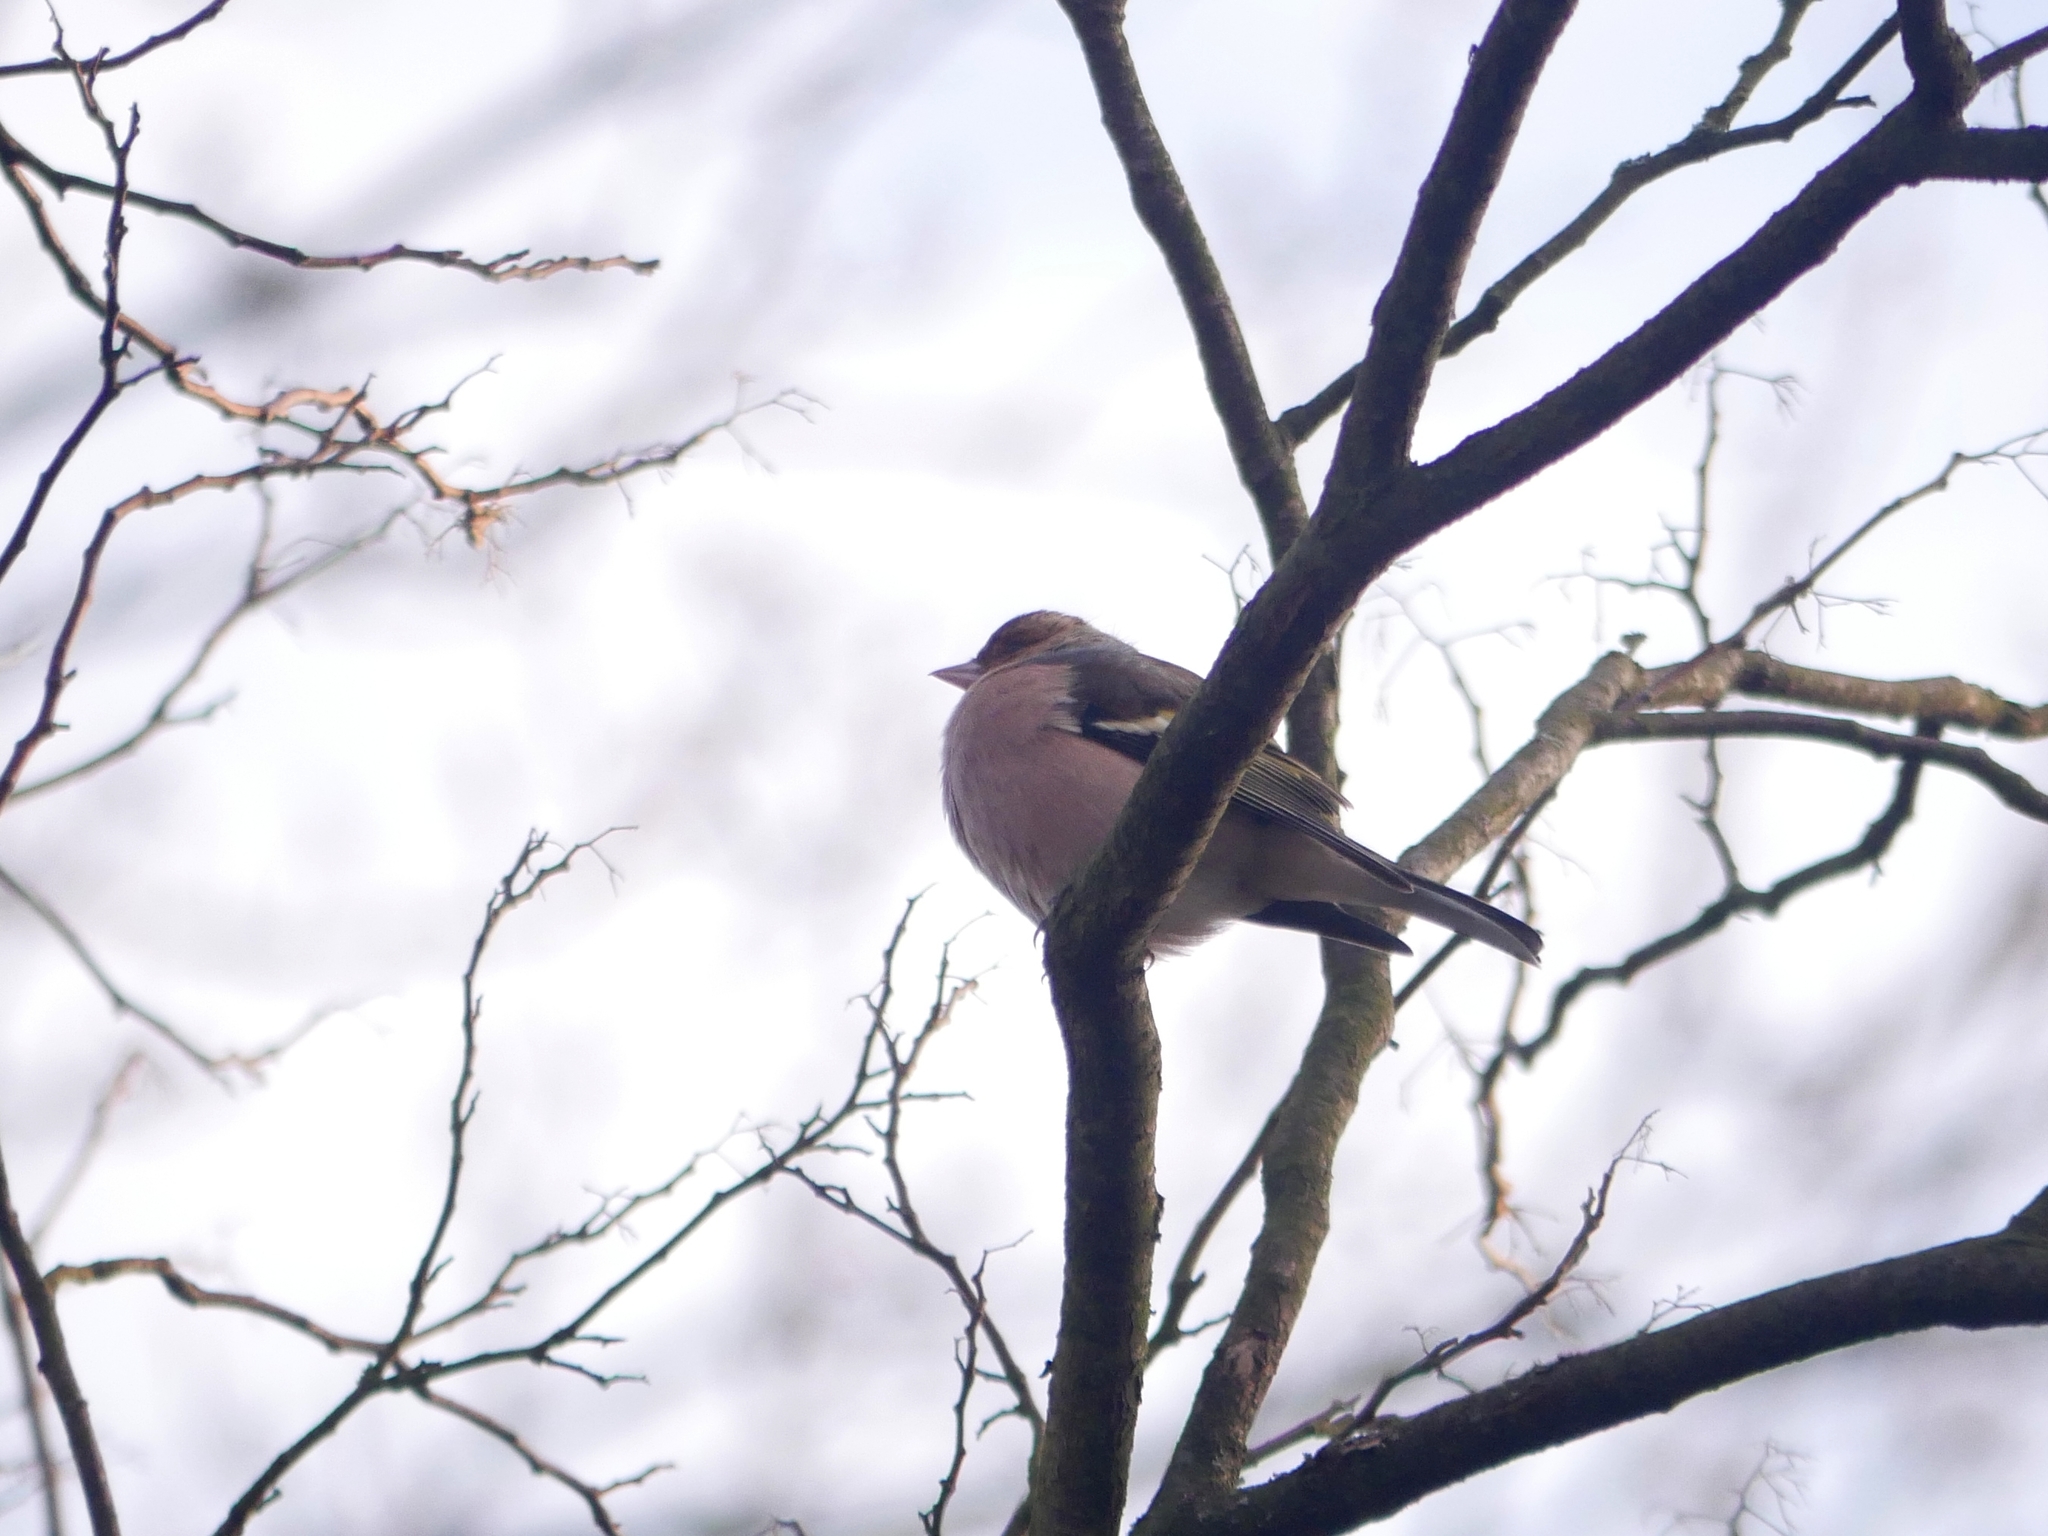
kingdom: Animalia
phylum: Chordata
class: Aves
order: Passeriformes
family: Fringillidae
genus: Fringilla
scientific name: Fringilla coelebs
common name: Common chaffinch
